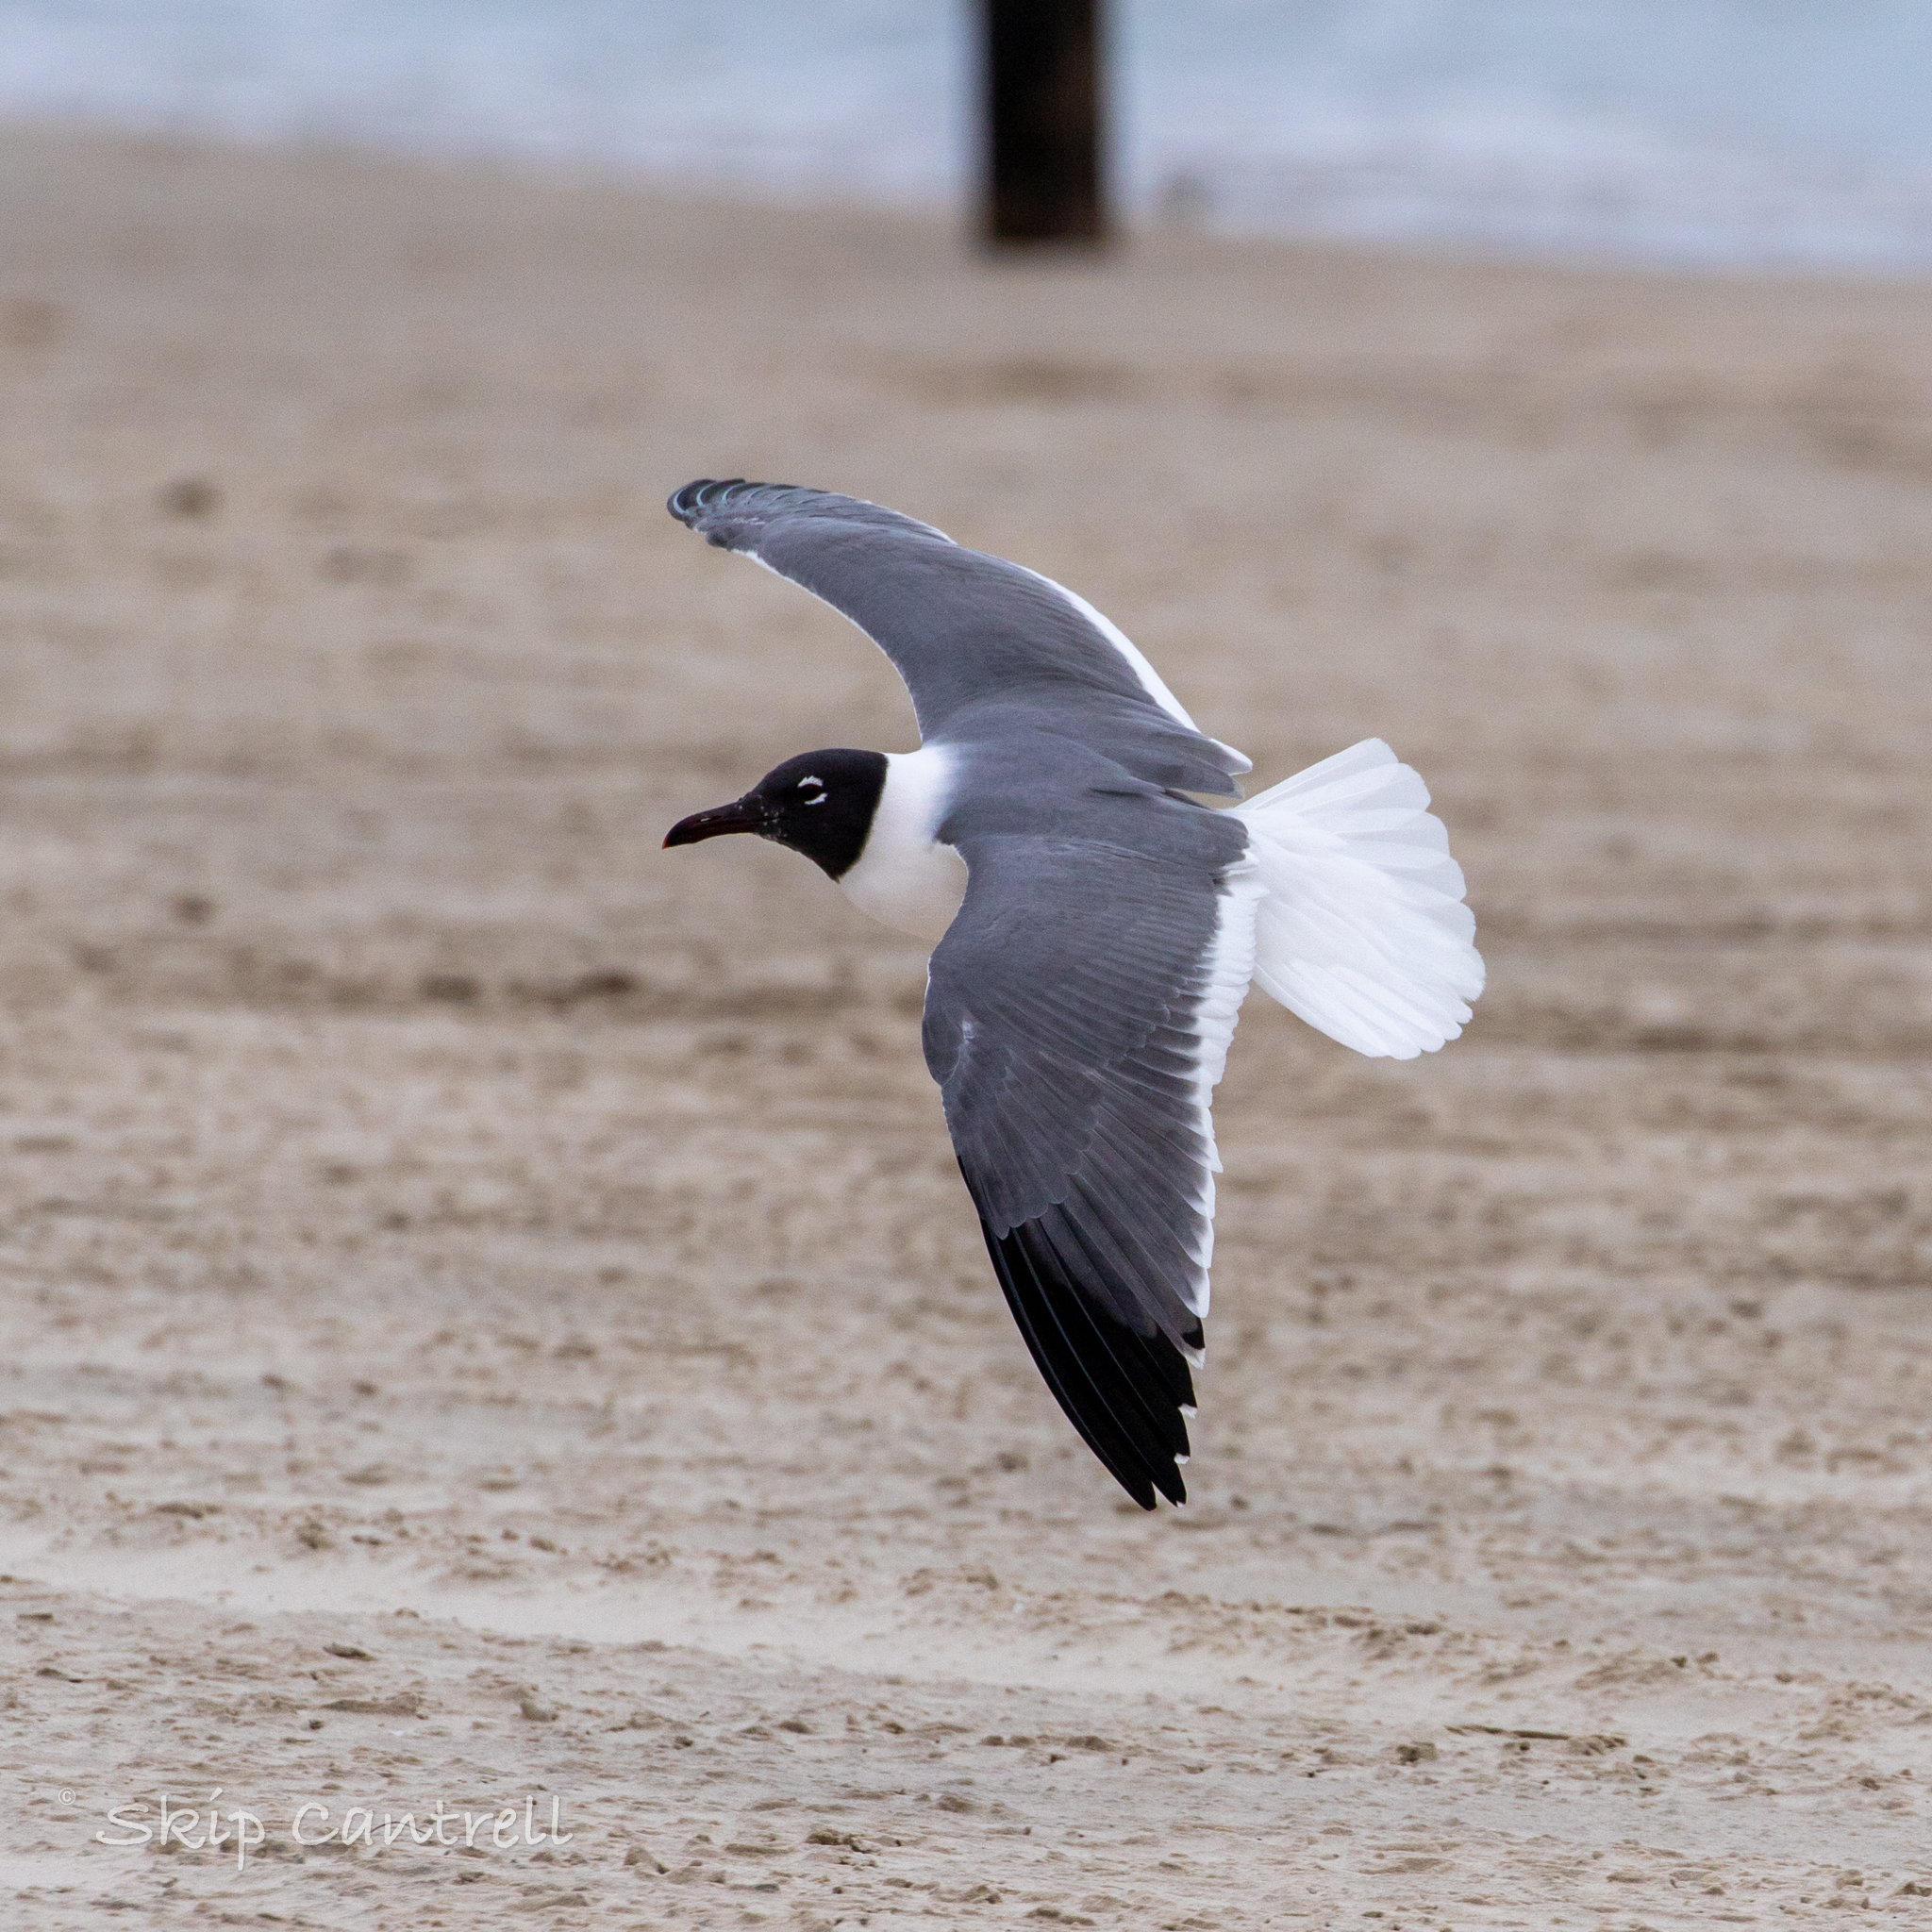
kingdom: Animalia
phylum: Chordata
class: Aves
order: Charadriiformes
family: Laridae
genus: Leucophaeus
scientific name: Leucophaeus atricilla
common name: Laughing gull
